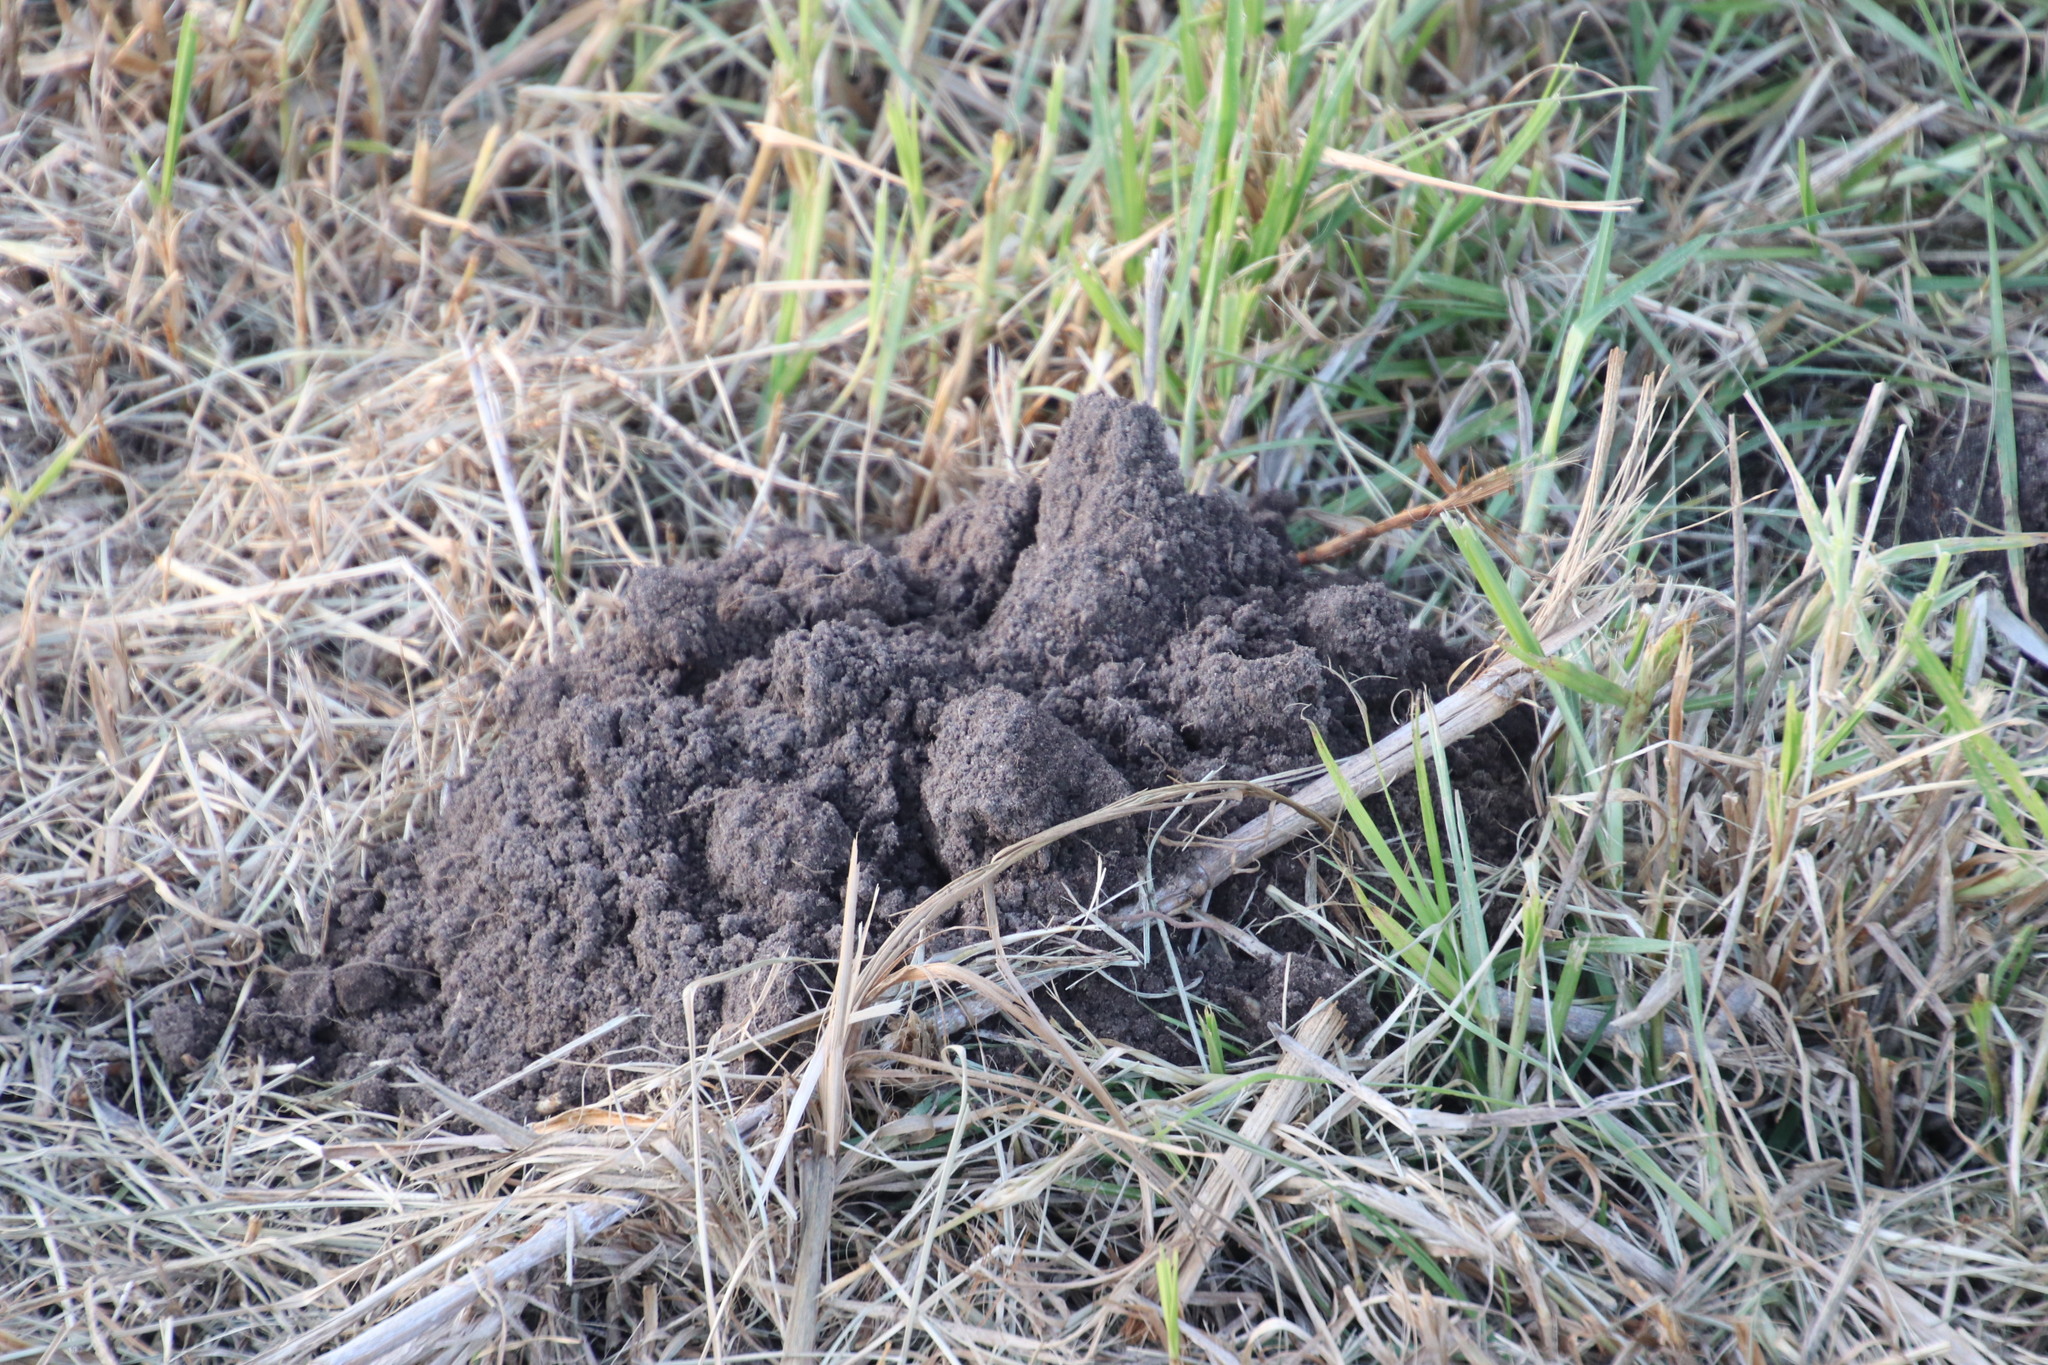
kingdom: Animalia
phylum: Chordata
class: Mammalia
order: Rodentia
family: Bathyergidae
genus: Bathyergus
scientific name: Bathyergus suillus
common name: Cape dune mole rat
